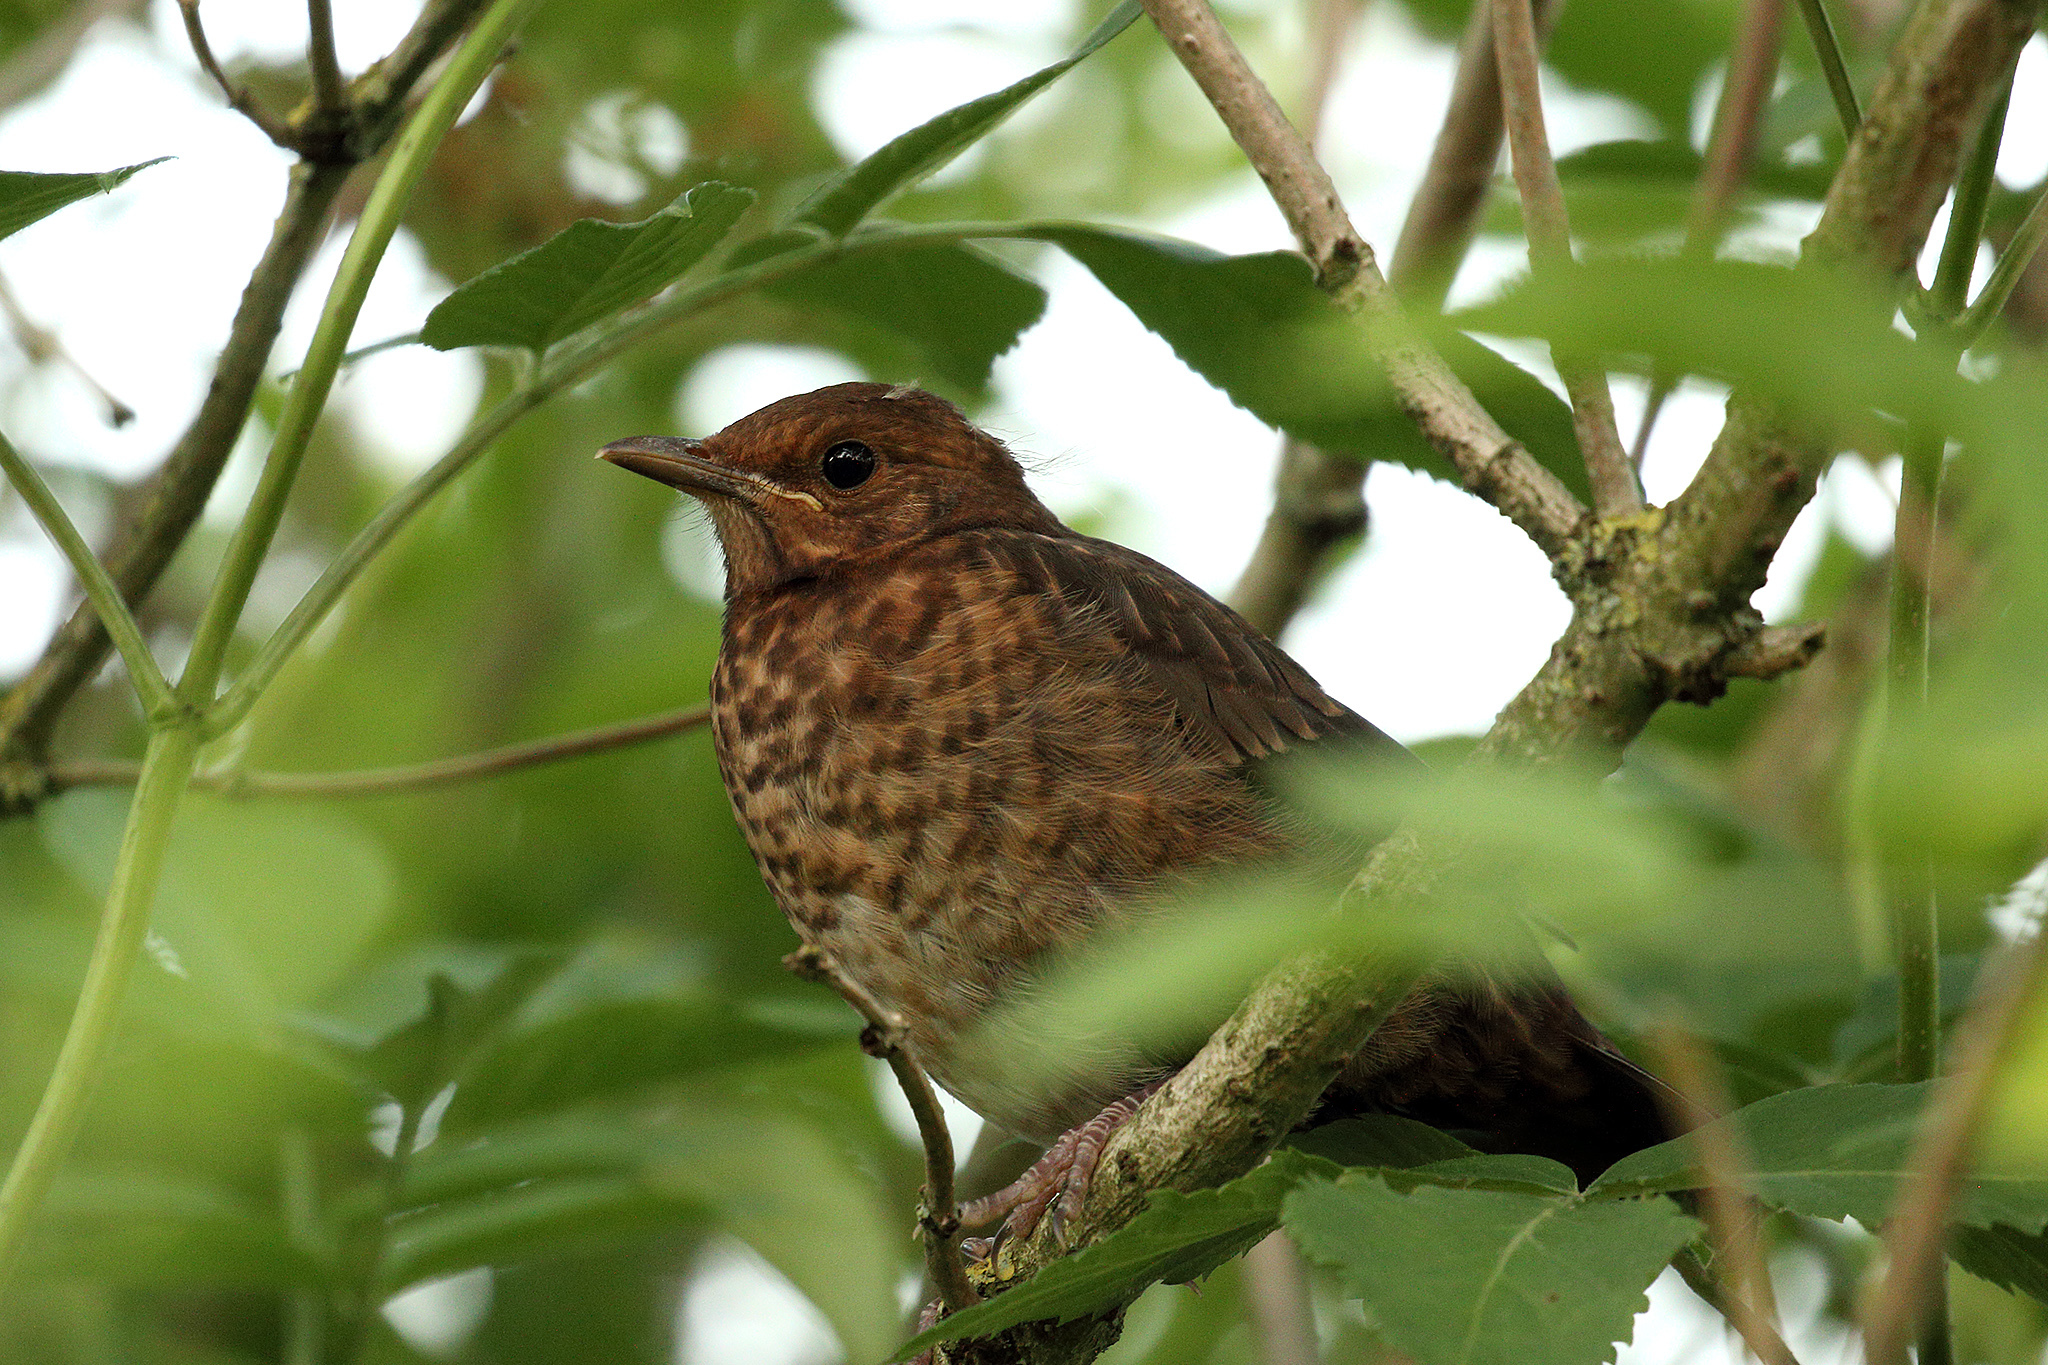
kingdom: Animalia
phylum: Chordata
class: Aves
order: Passeriformes
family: Turdidae
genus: Turdus
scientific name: Turdus merula
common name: Common blackbird
